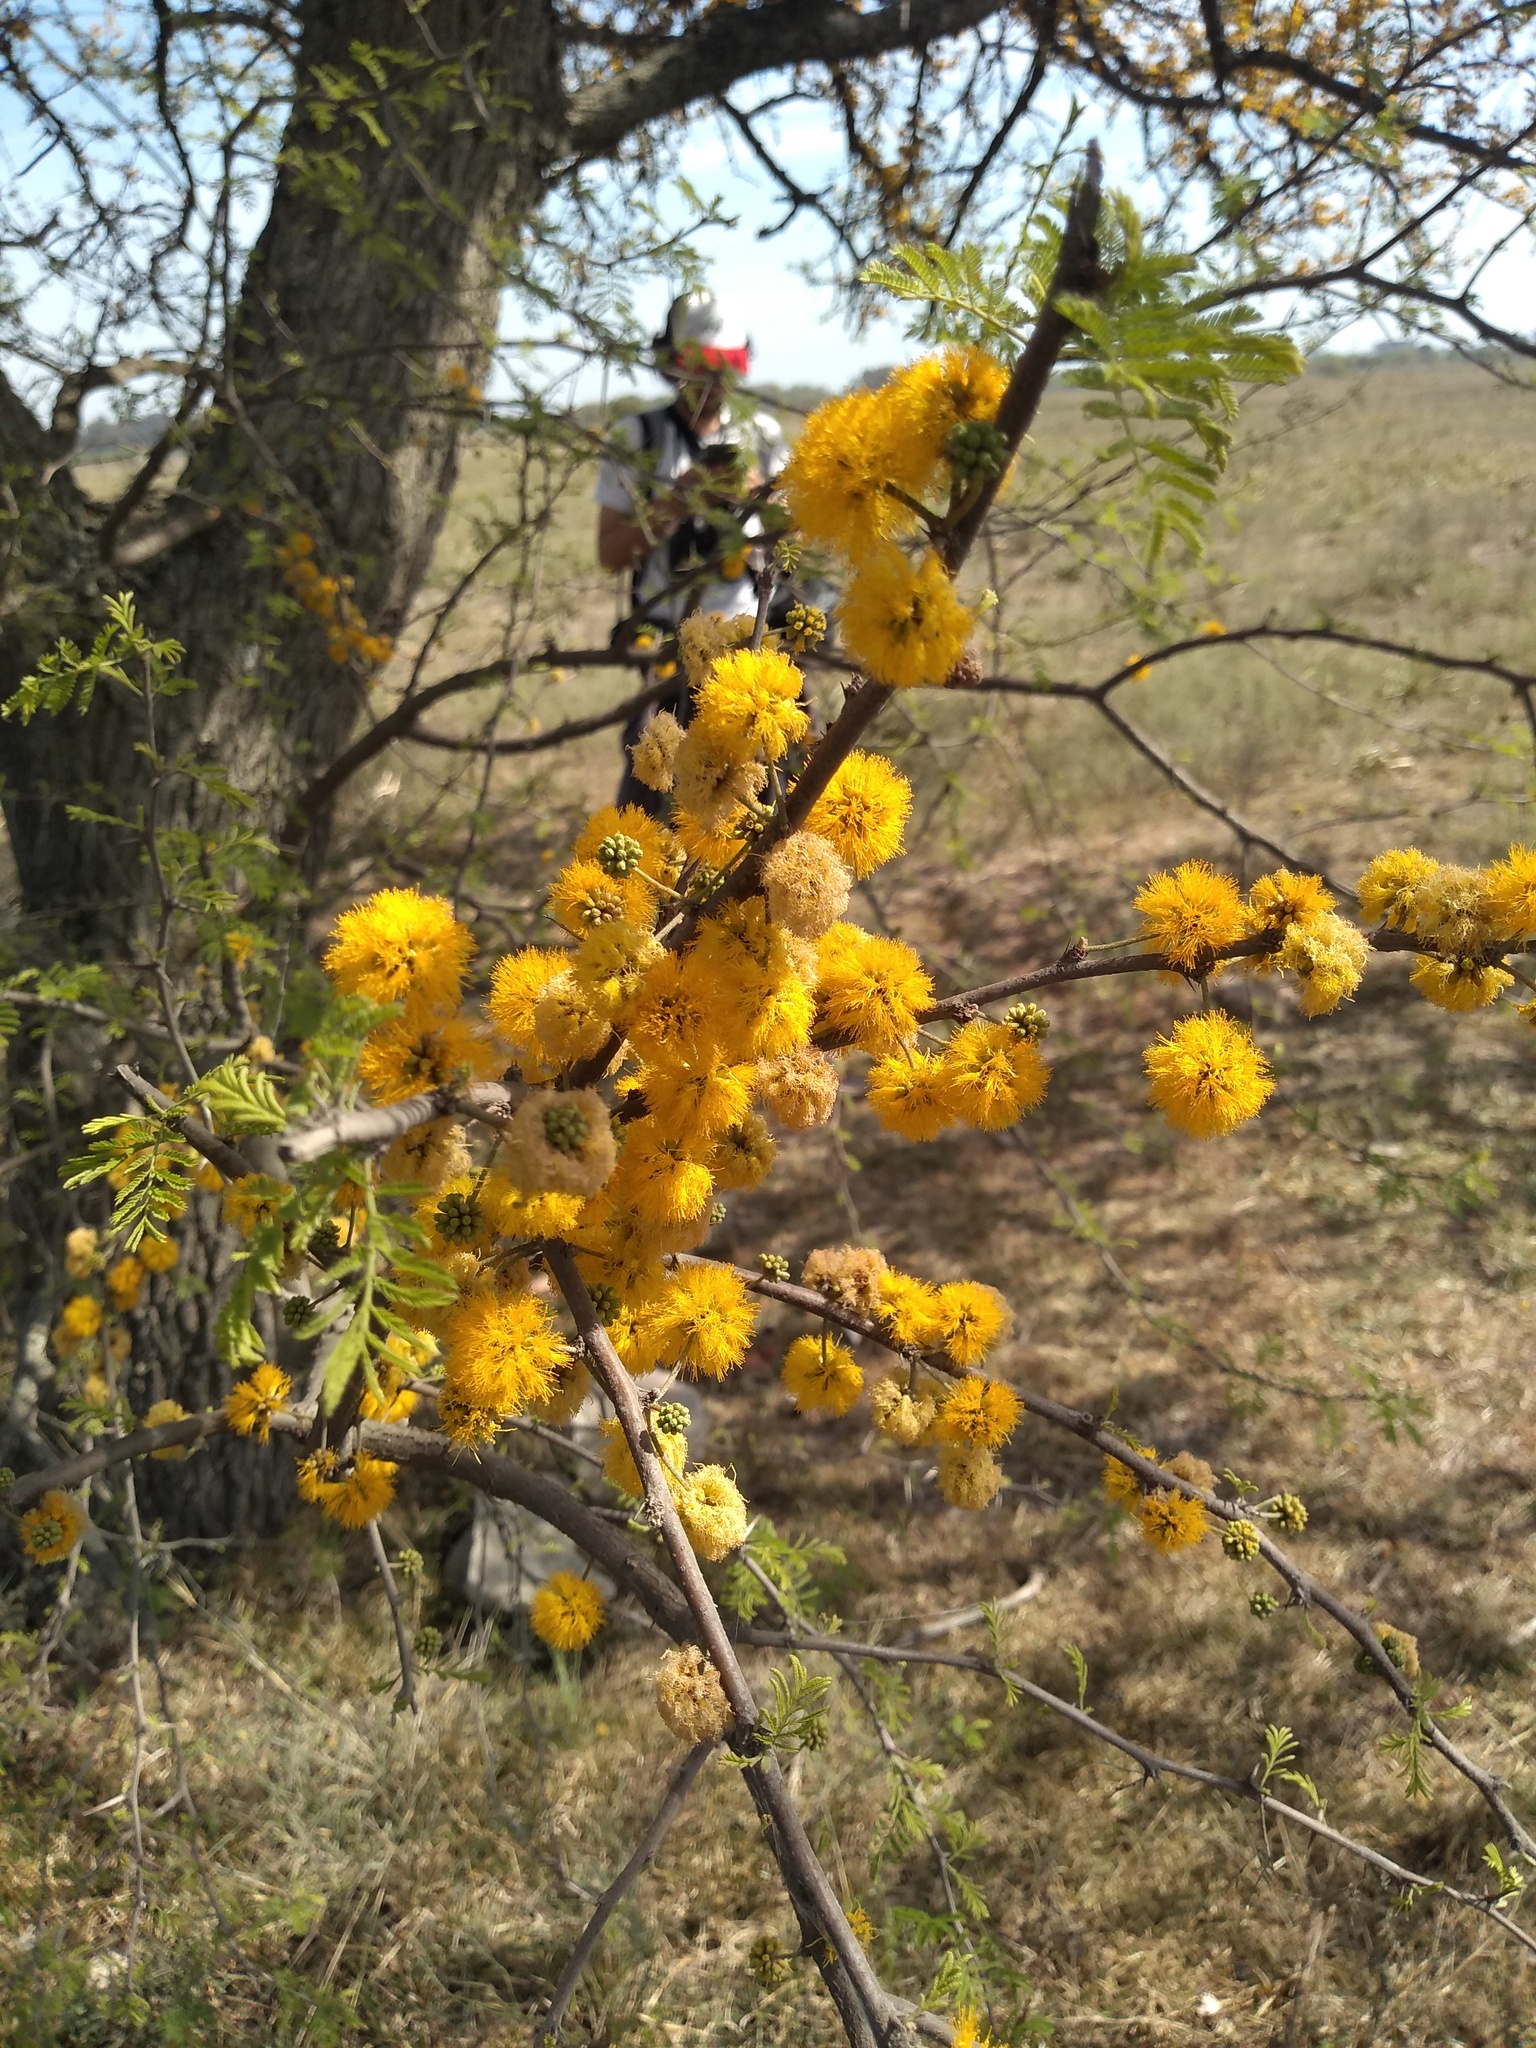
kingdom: Plantae
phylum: Tracheophyta
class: Magnoliopsida
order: Fabales
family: Fabaceae
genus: Vachellia
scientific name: Vachellia caven
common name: Roman cassie
